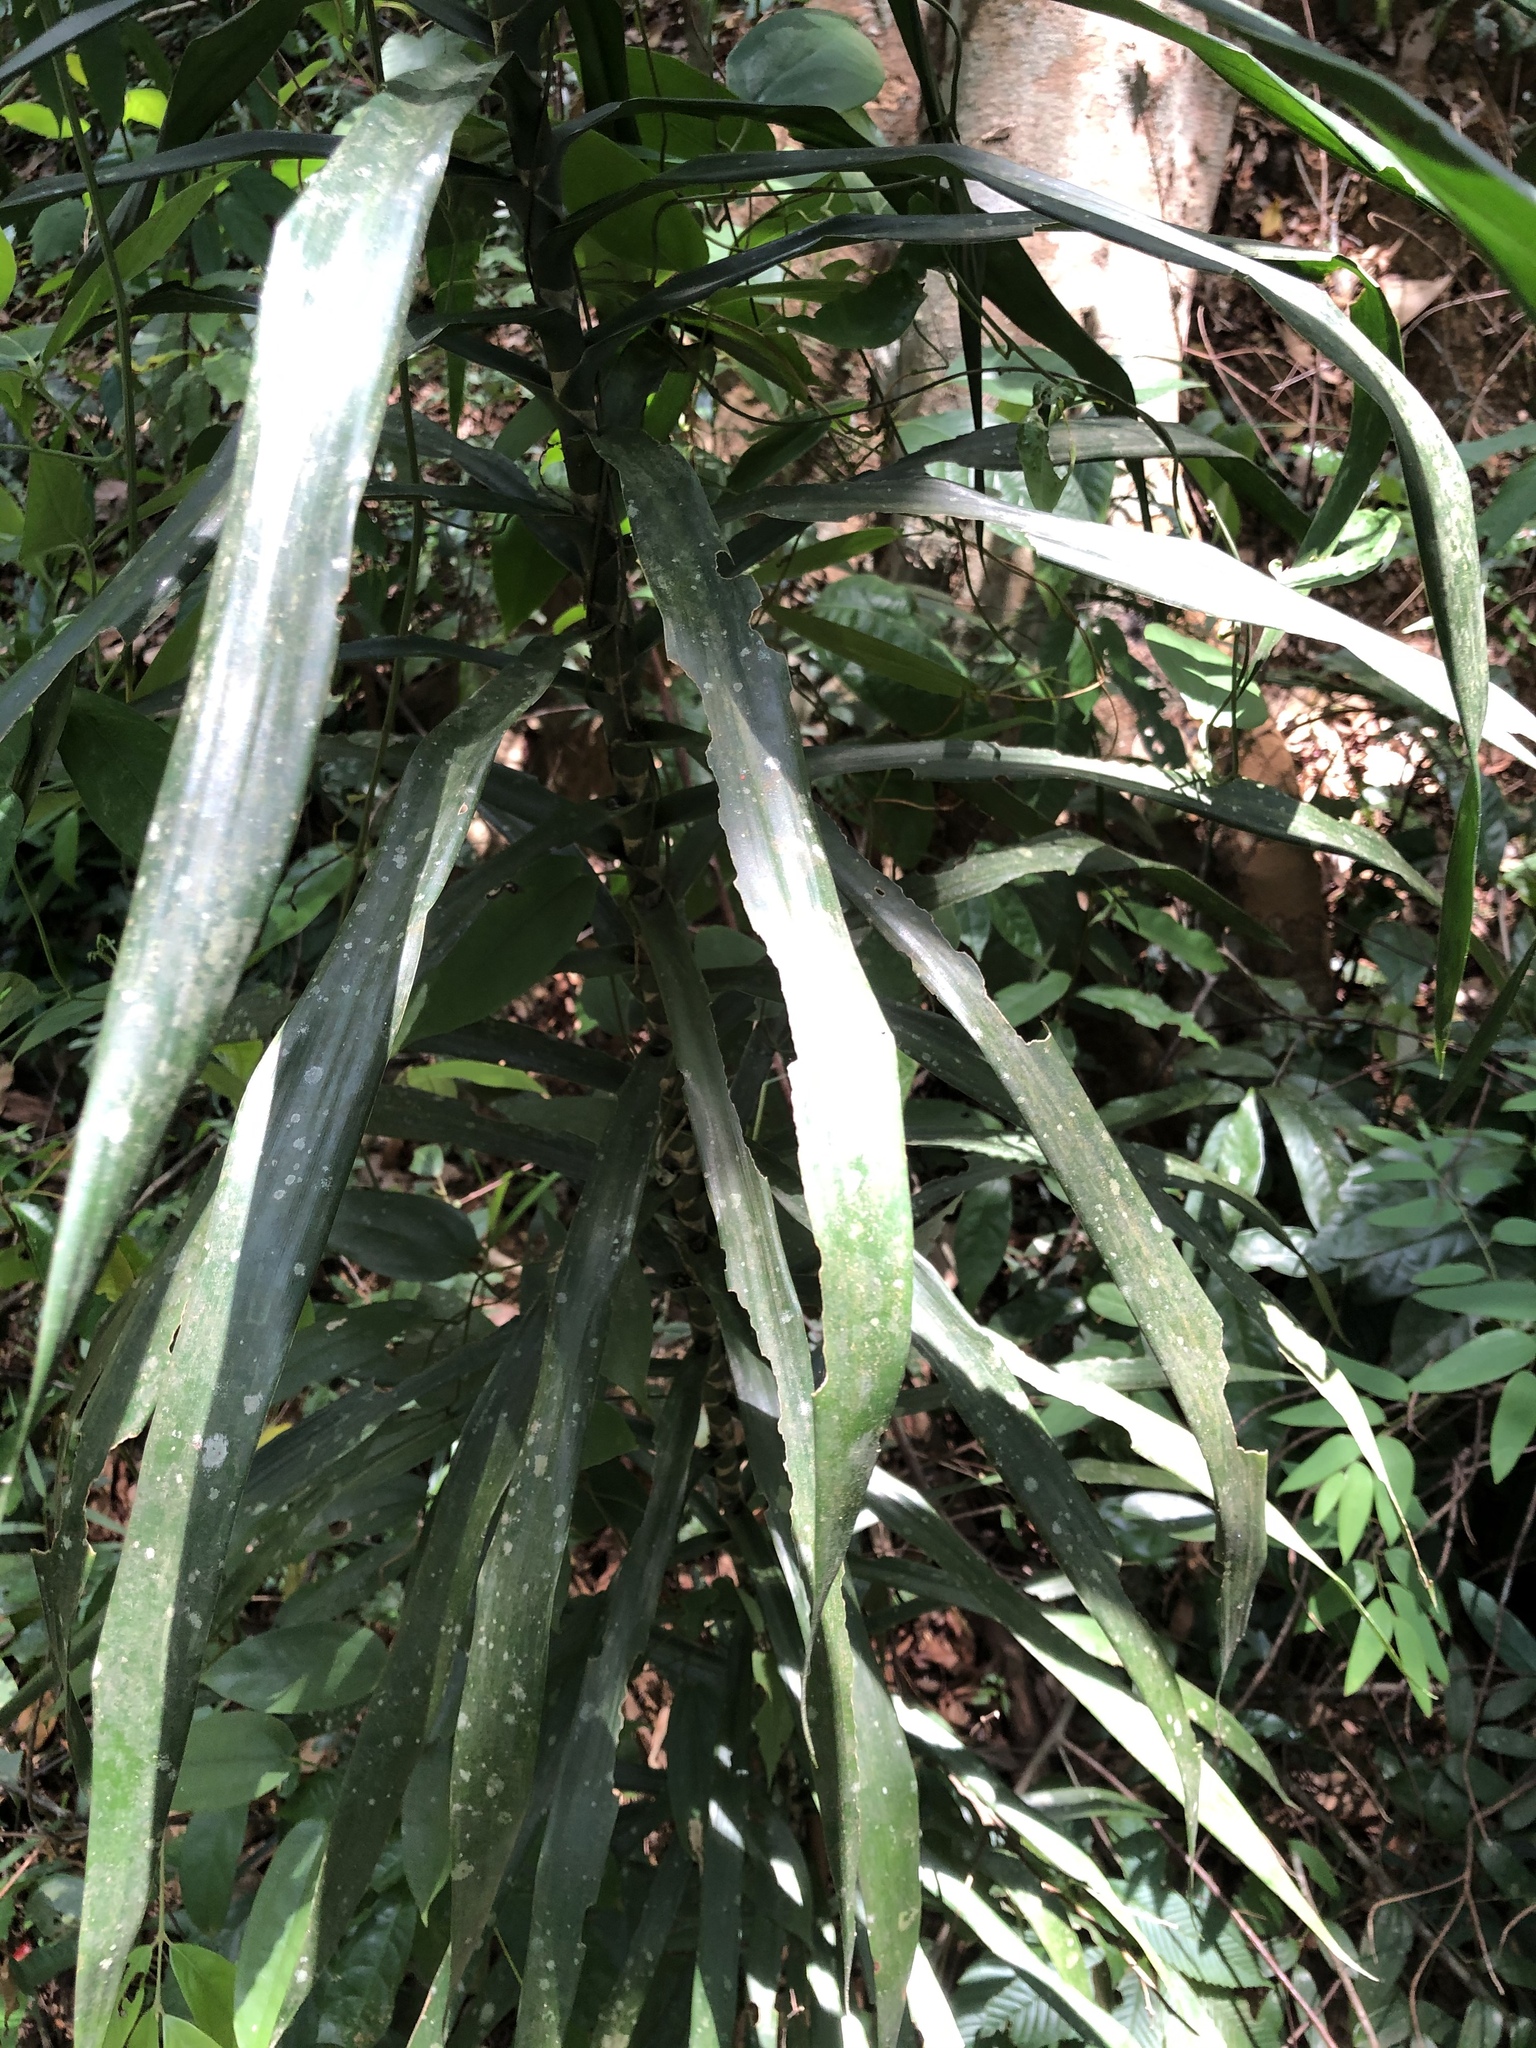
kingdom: Plantae
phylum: Tracheophyta
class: Liliopsida
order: Asparagales
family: Asparagaceae
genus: Dracaena
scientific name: Dracaena angustifolia
